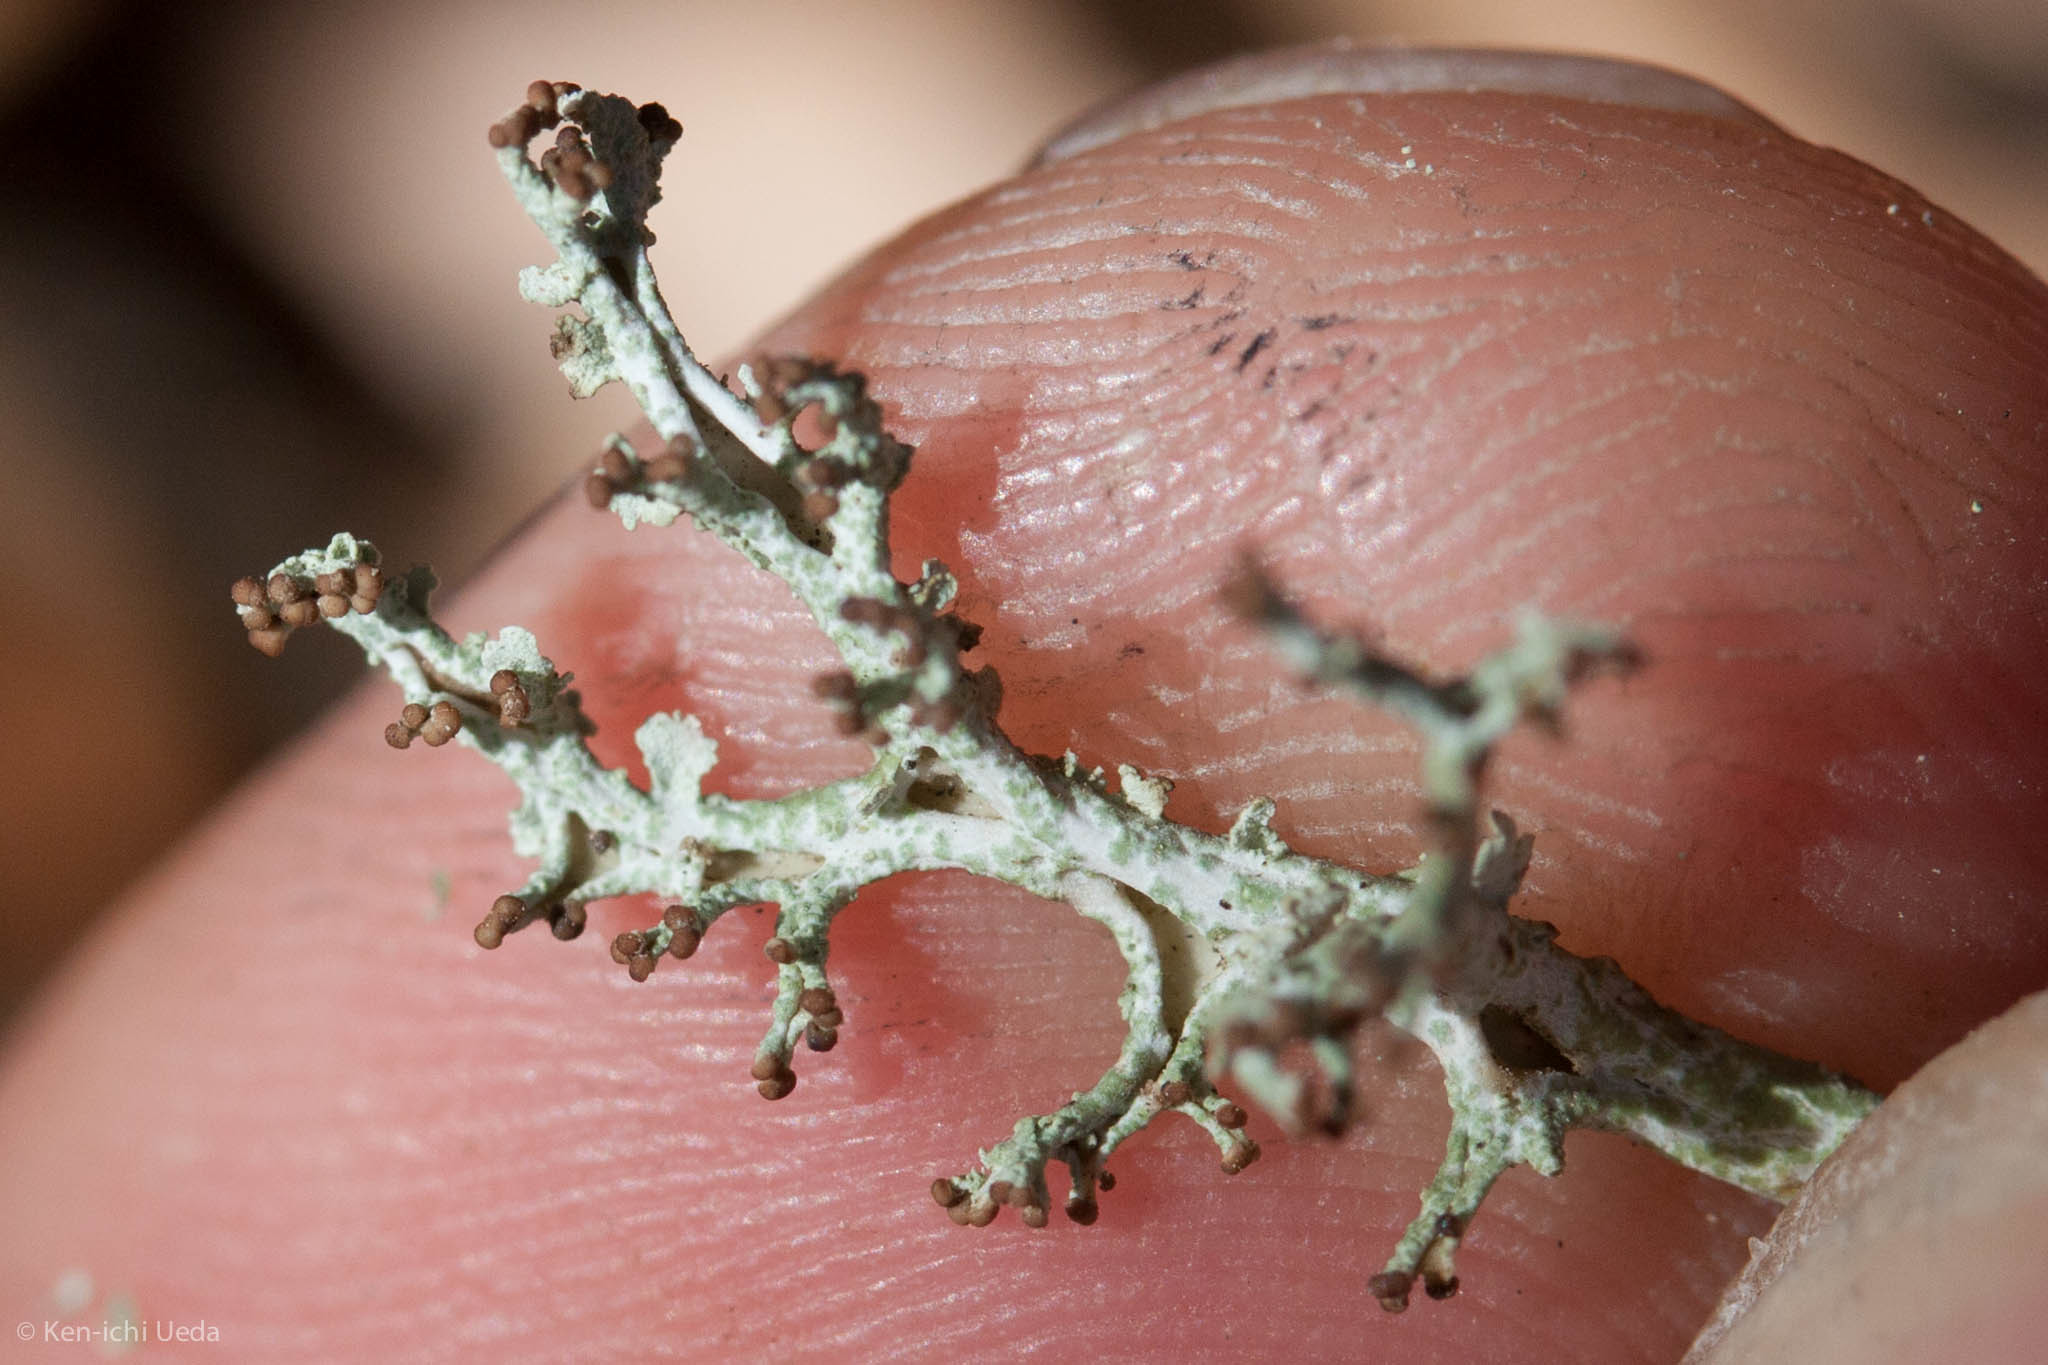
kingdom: Fungi
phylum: Ascomycota
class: Lecanoromycetes
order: Lecanorales
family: Cladoniaceae
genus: Cladonia
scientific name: Cladonia furcata
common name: Many-forked cladonia
